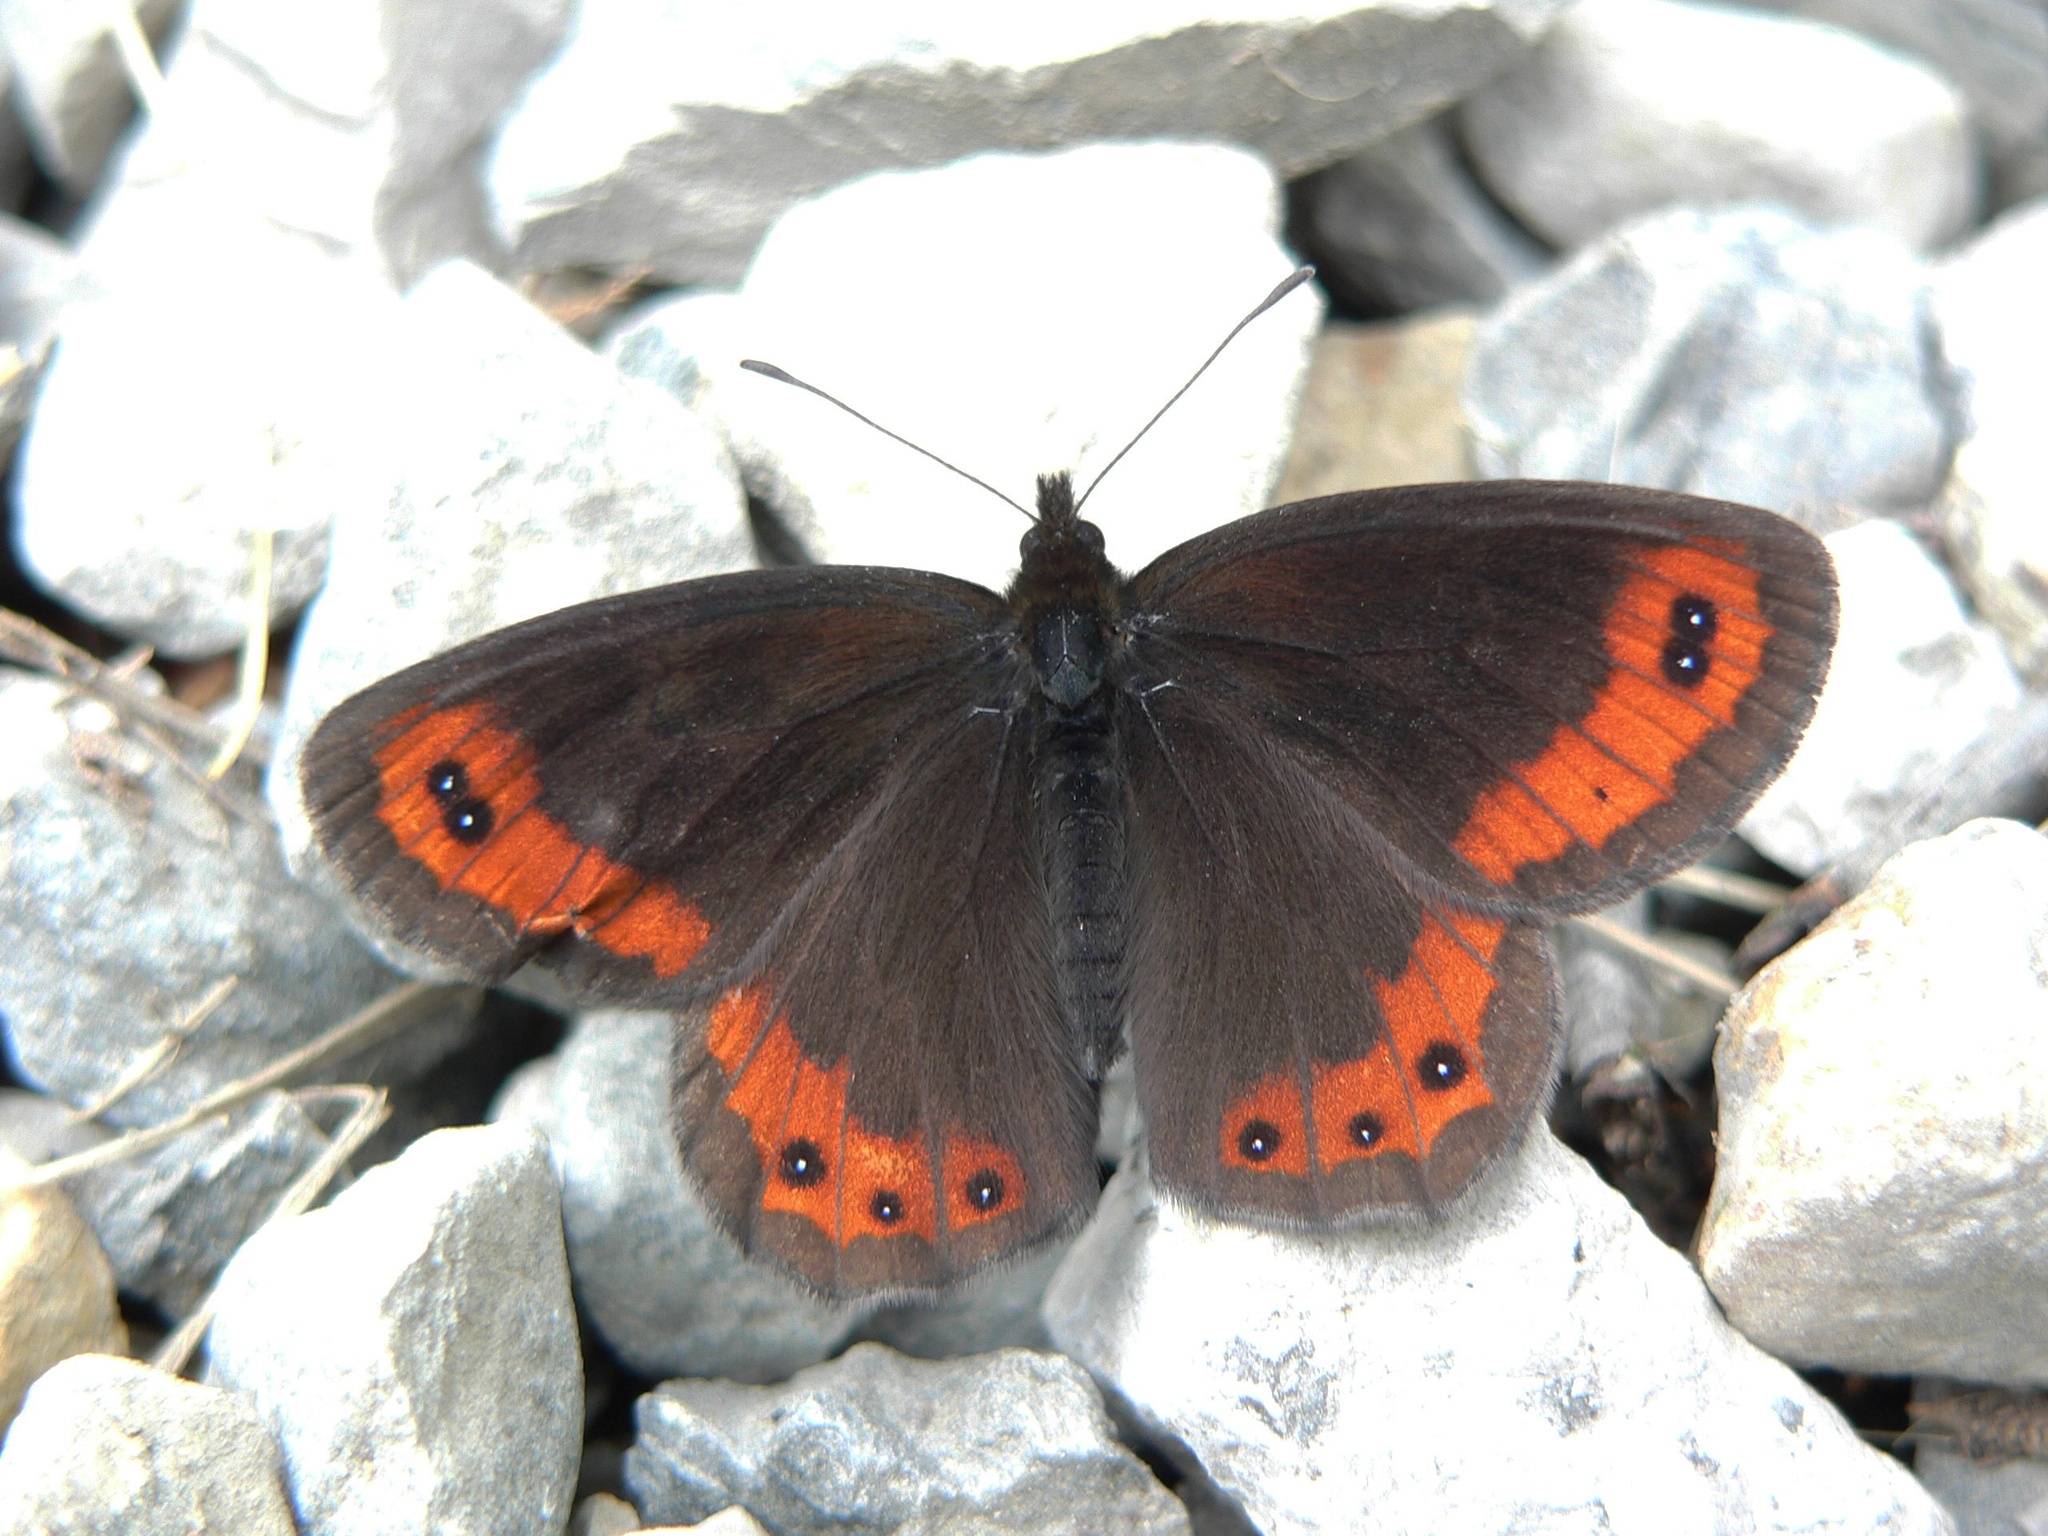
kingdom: Animalia
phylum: Arthropoda
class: Insecta
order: Lepidoptera
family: Nymphalidae
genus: Erebia
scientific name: Erebia montanus
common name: Marbled ringlet
